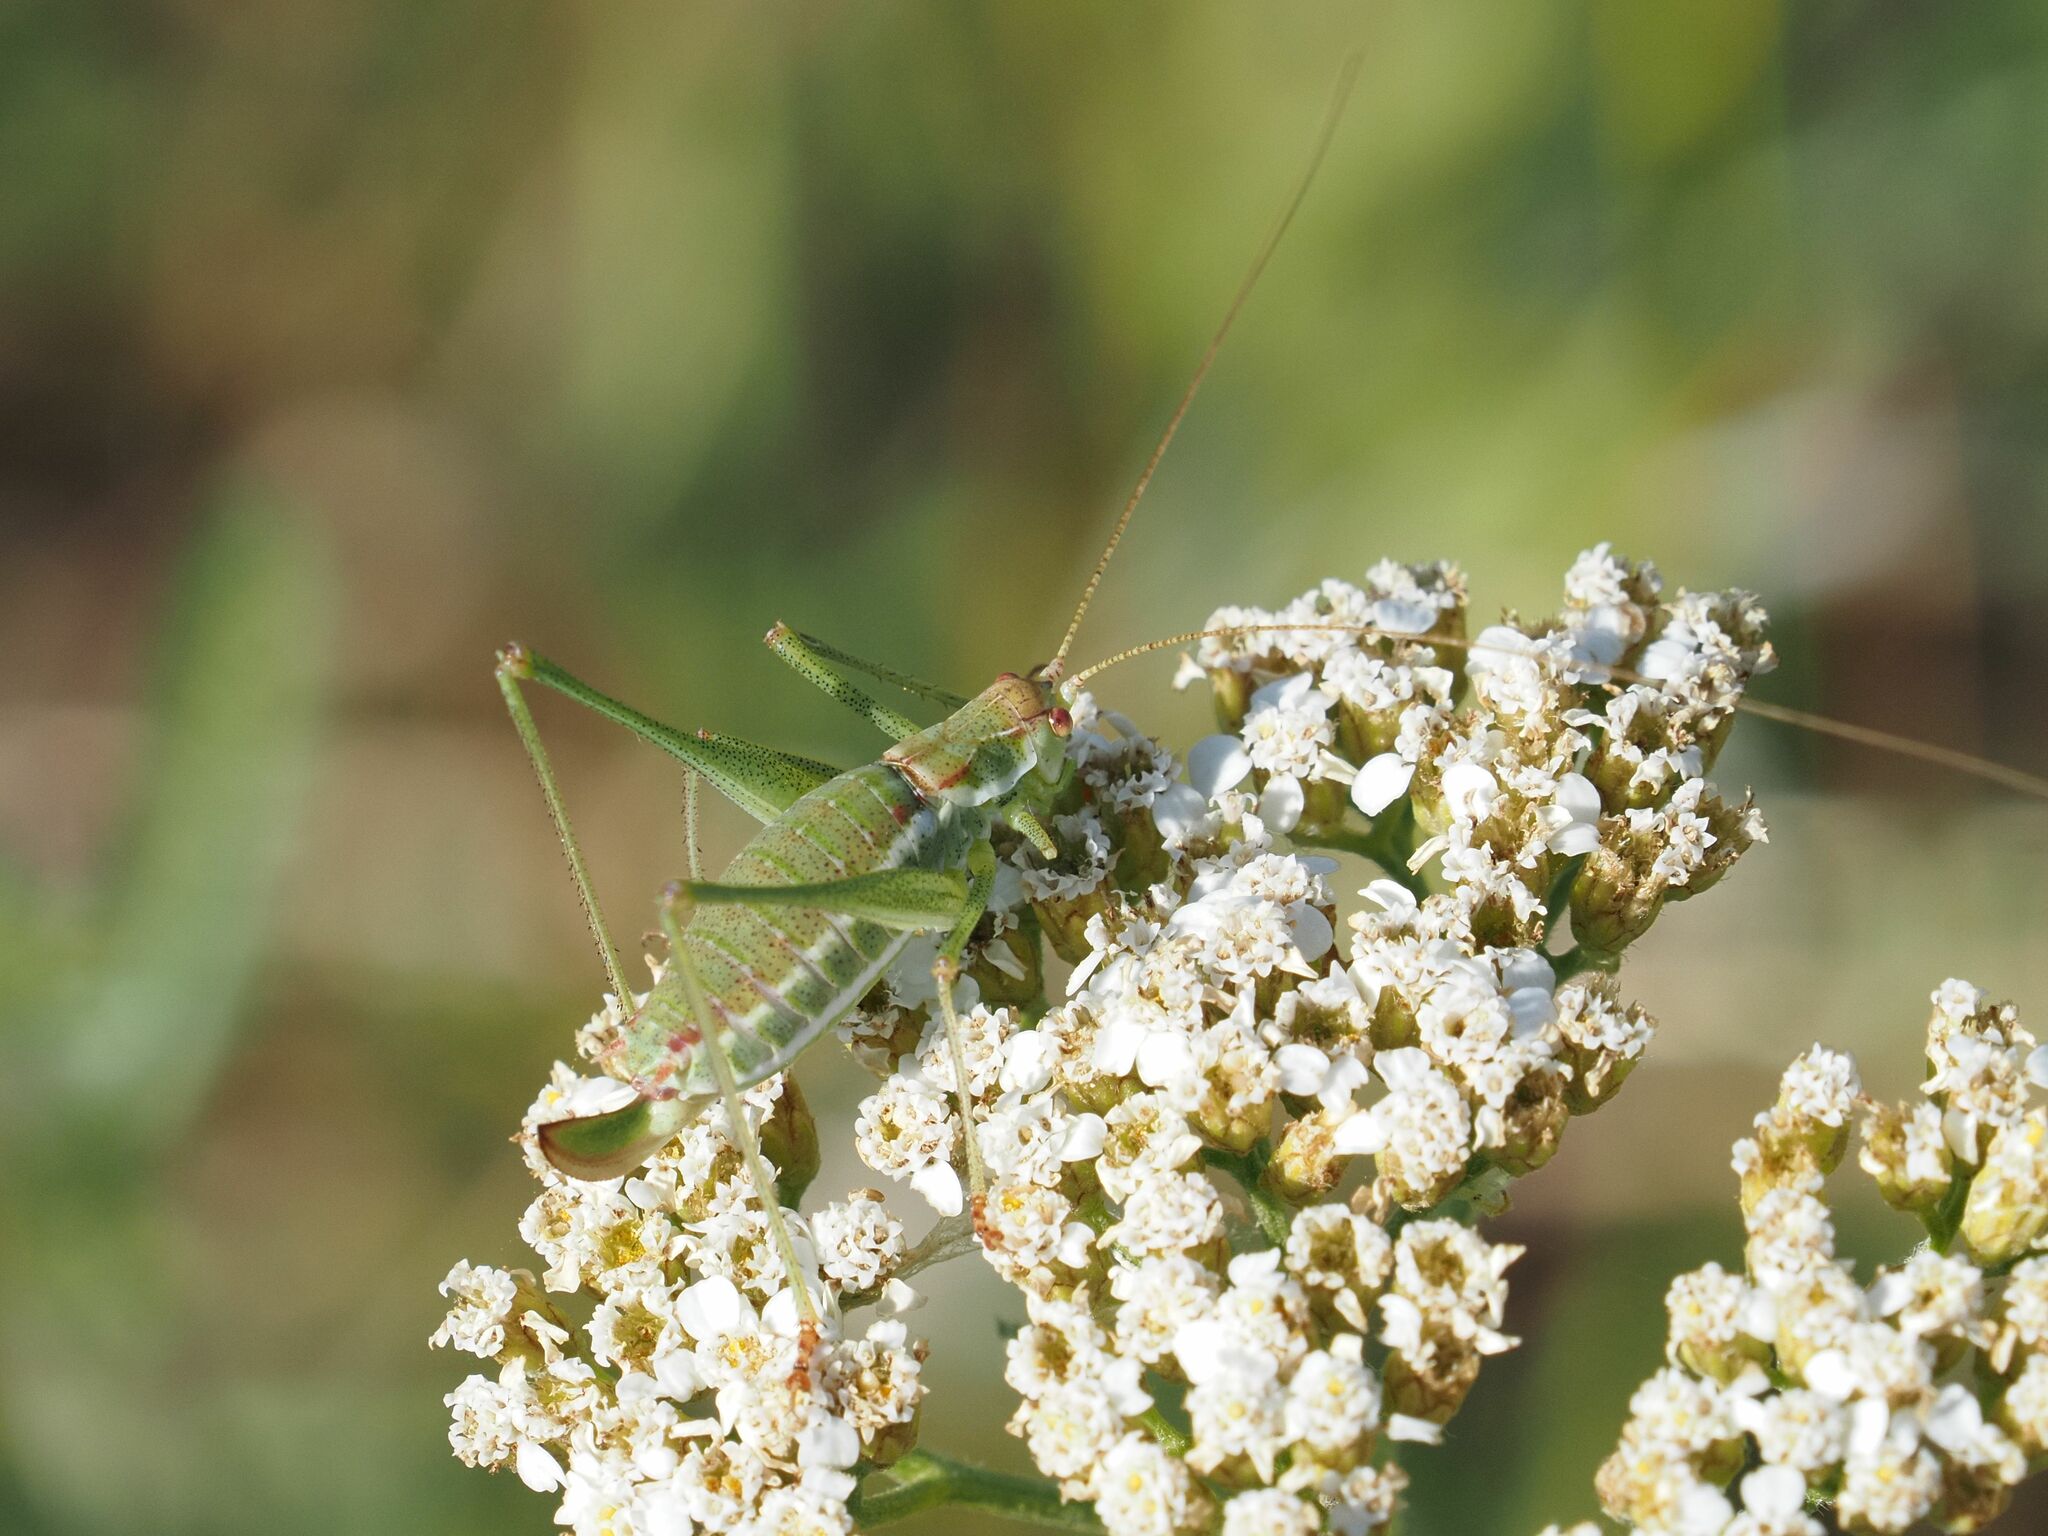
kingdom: Animalia
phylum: Arthropoda
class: Insecta
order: Orthoptera
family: Tettigoniidae
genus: Leptophyes
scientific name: Leptophyes albovittata
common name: Striped bush-cricket
